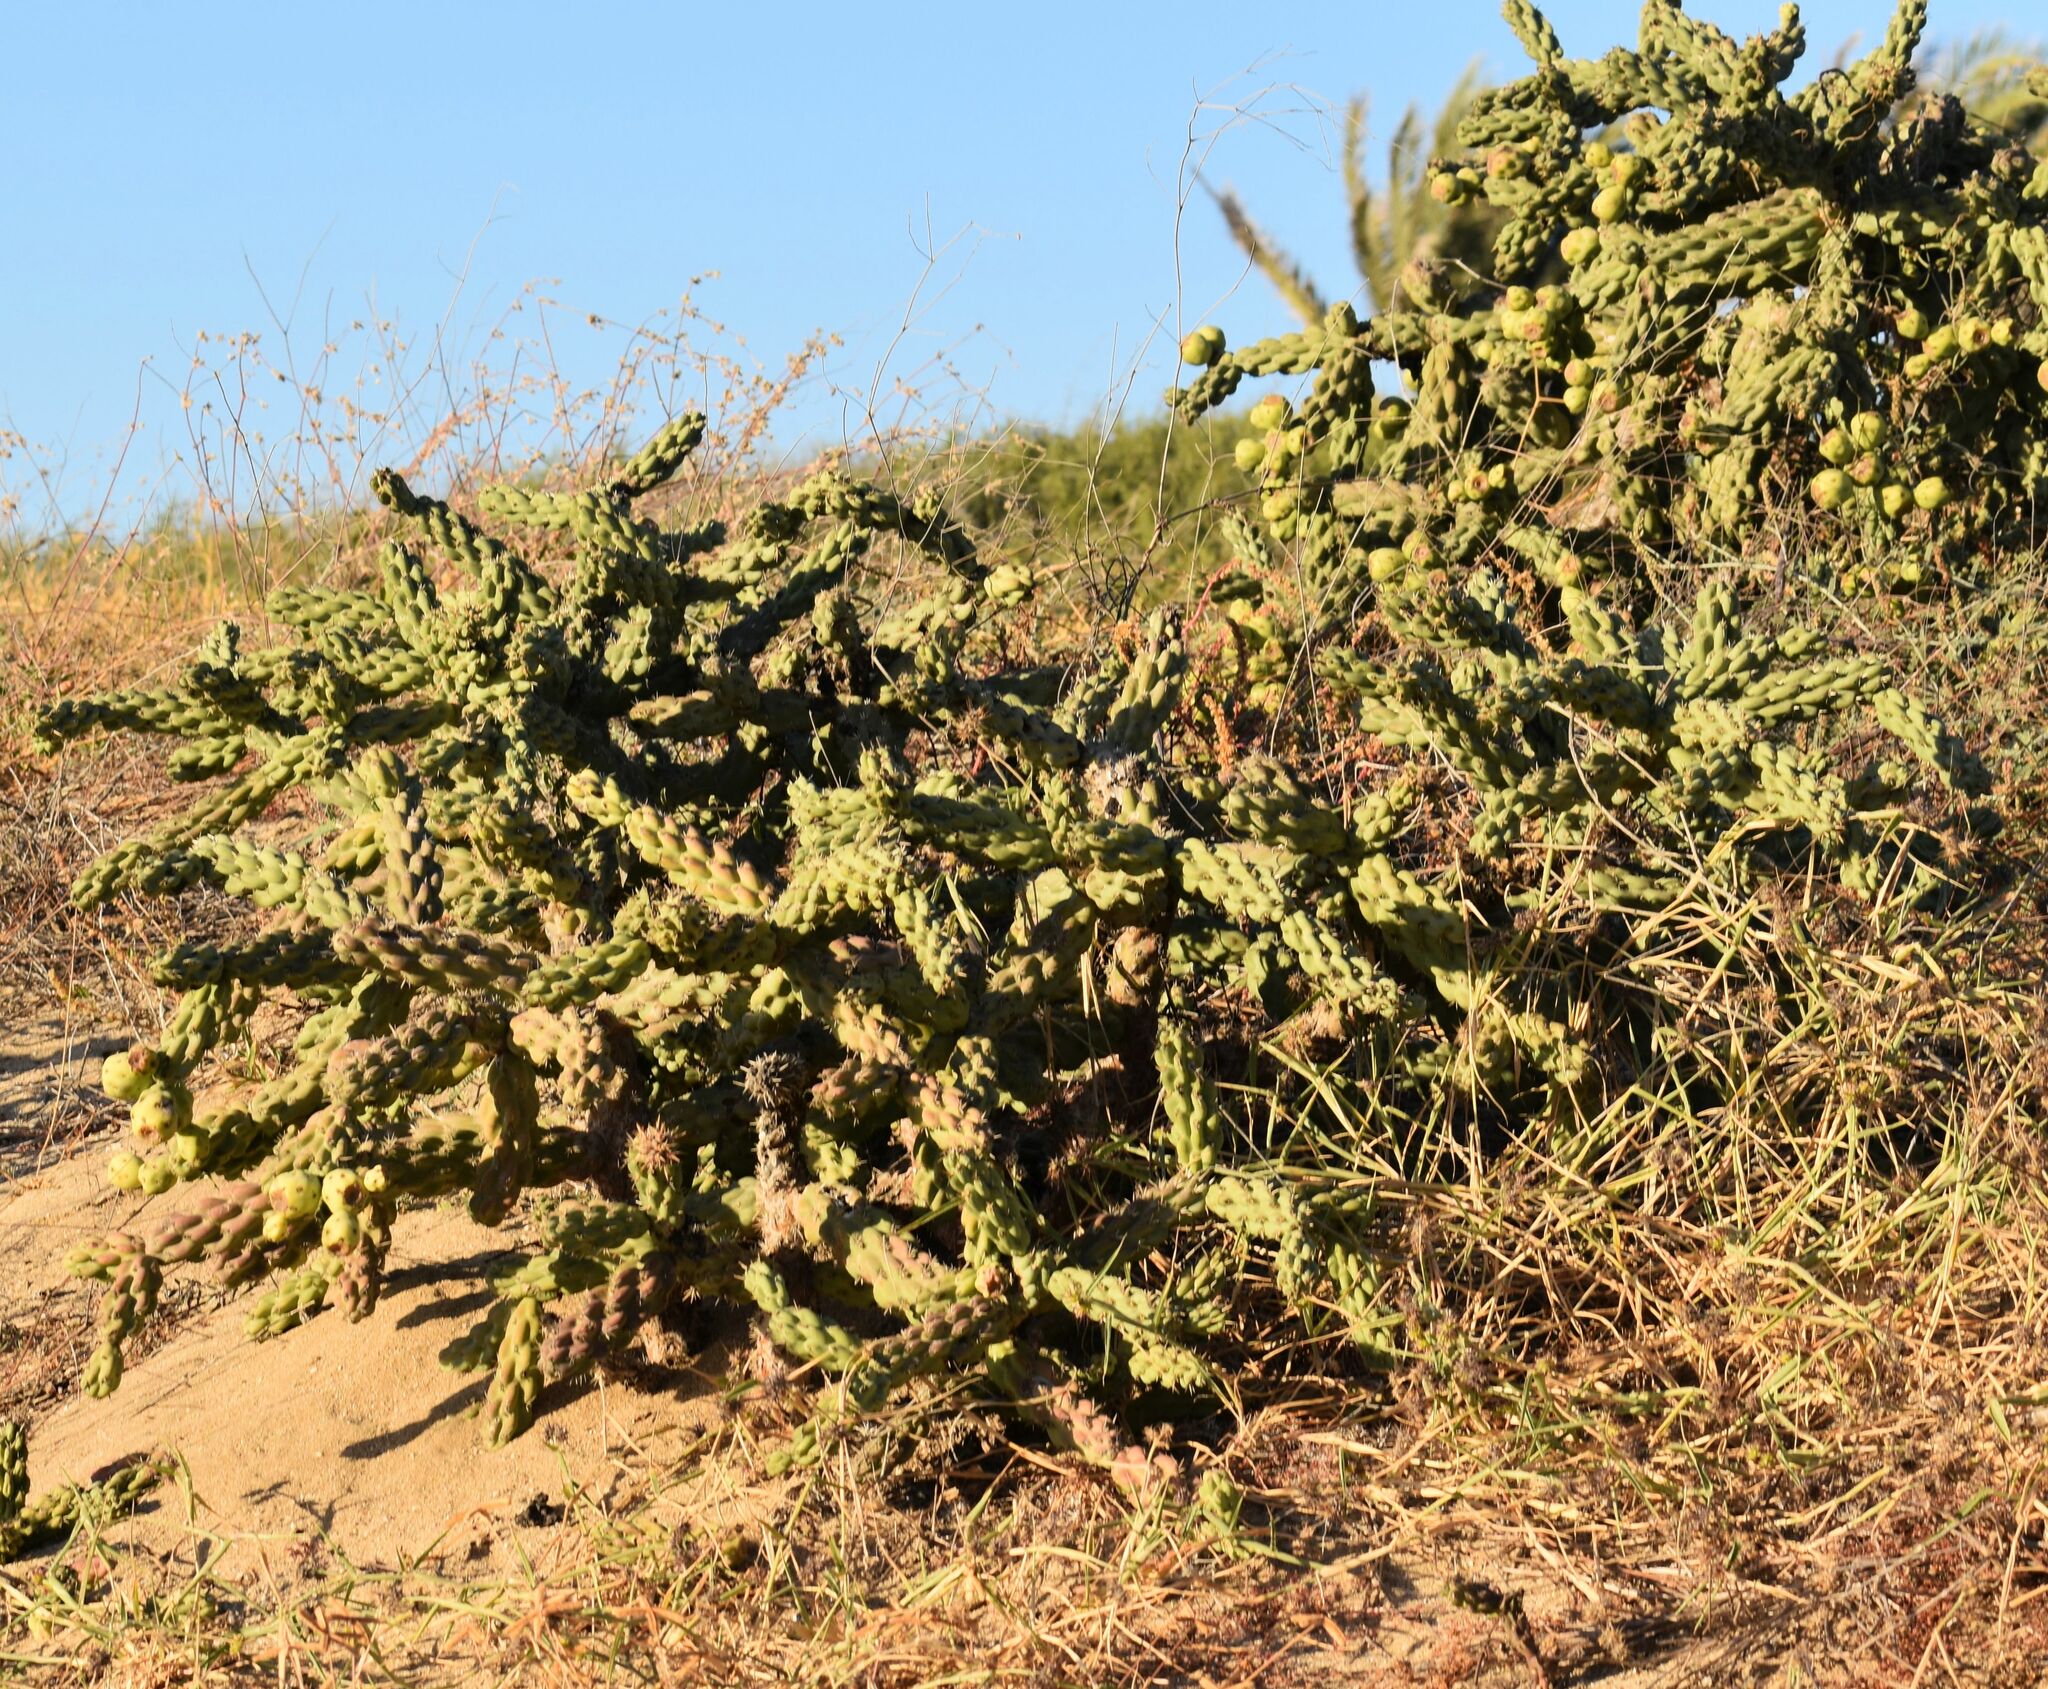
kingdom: Plantae
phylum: Tracheophyta
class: Magnoliopsida
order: Caryophyllales
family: Cactaceae
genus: Cylindropuntia
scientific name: Cylindropuntia cholla
